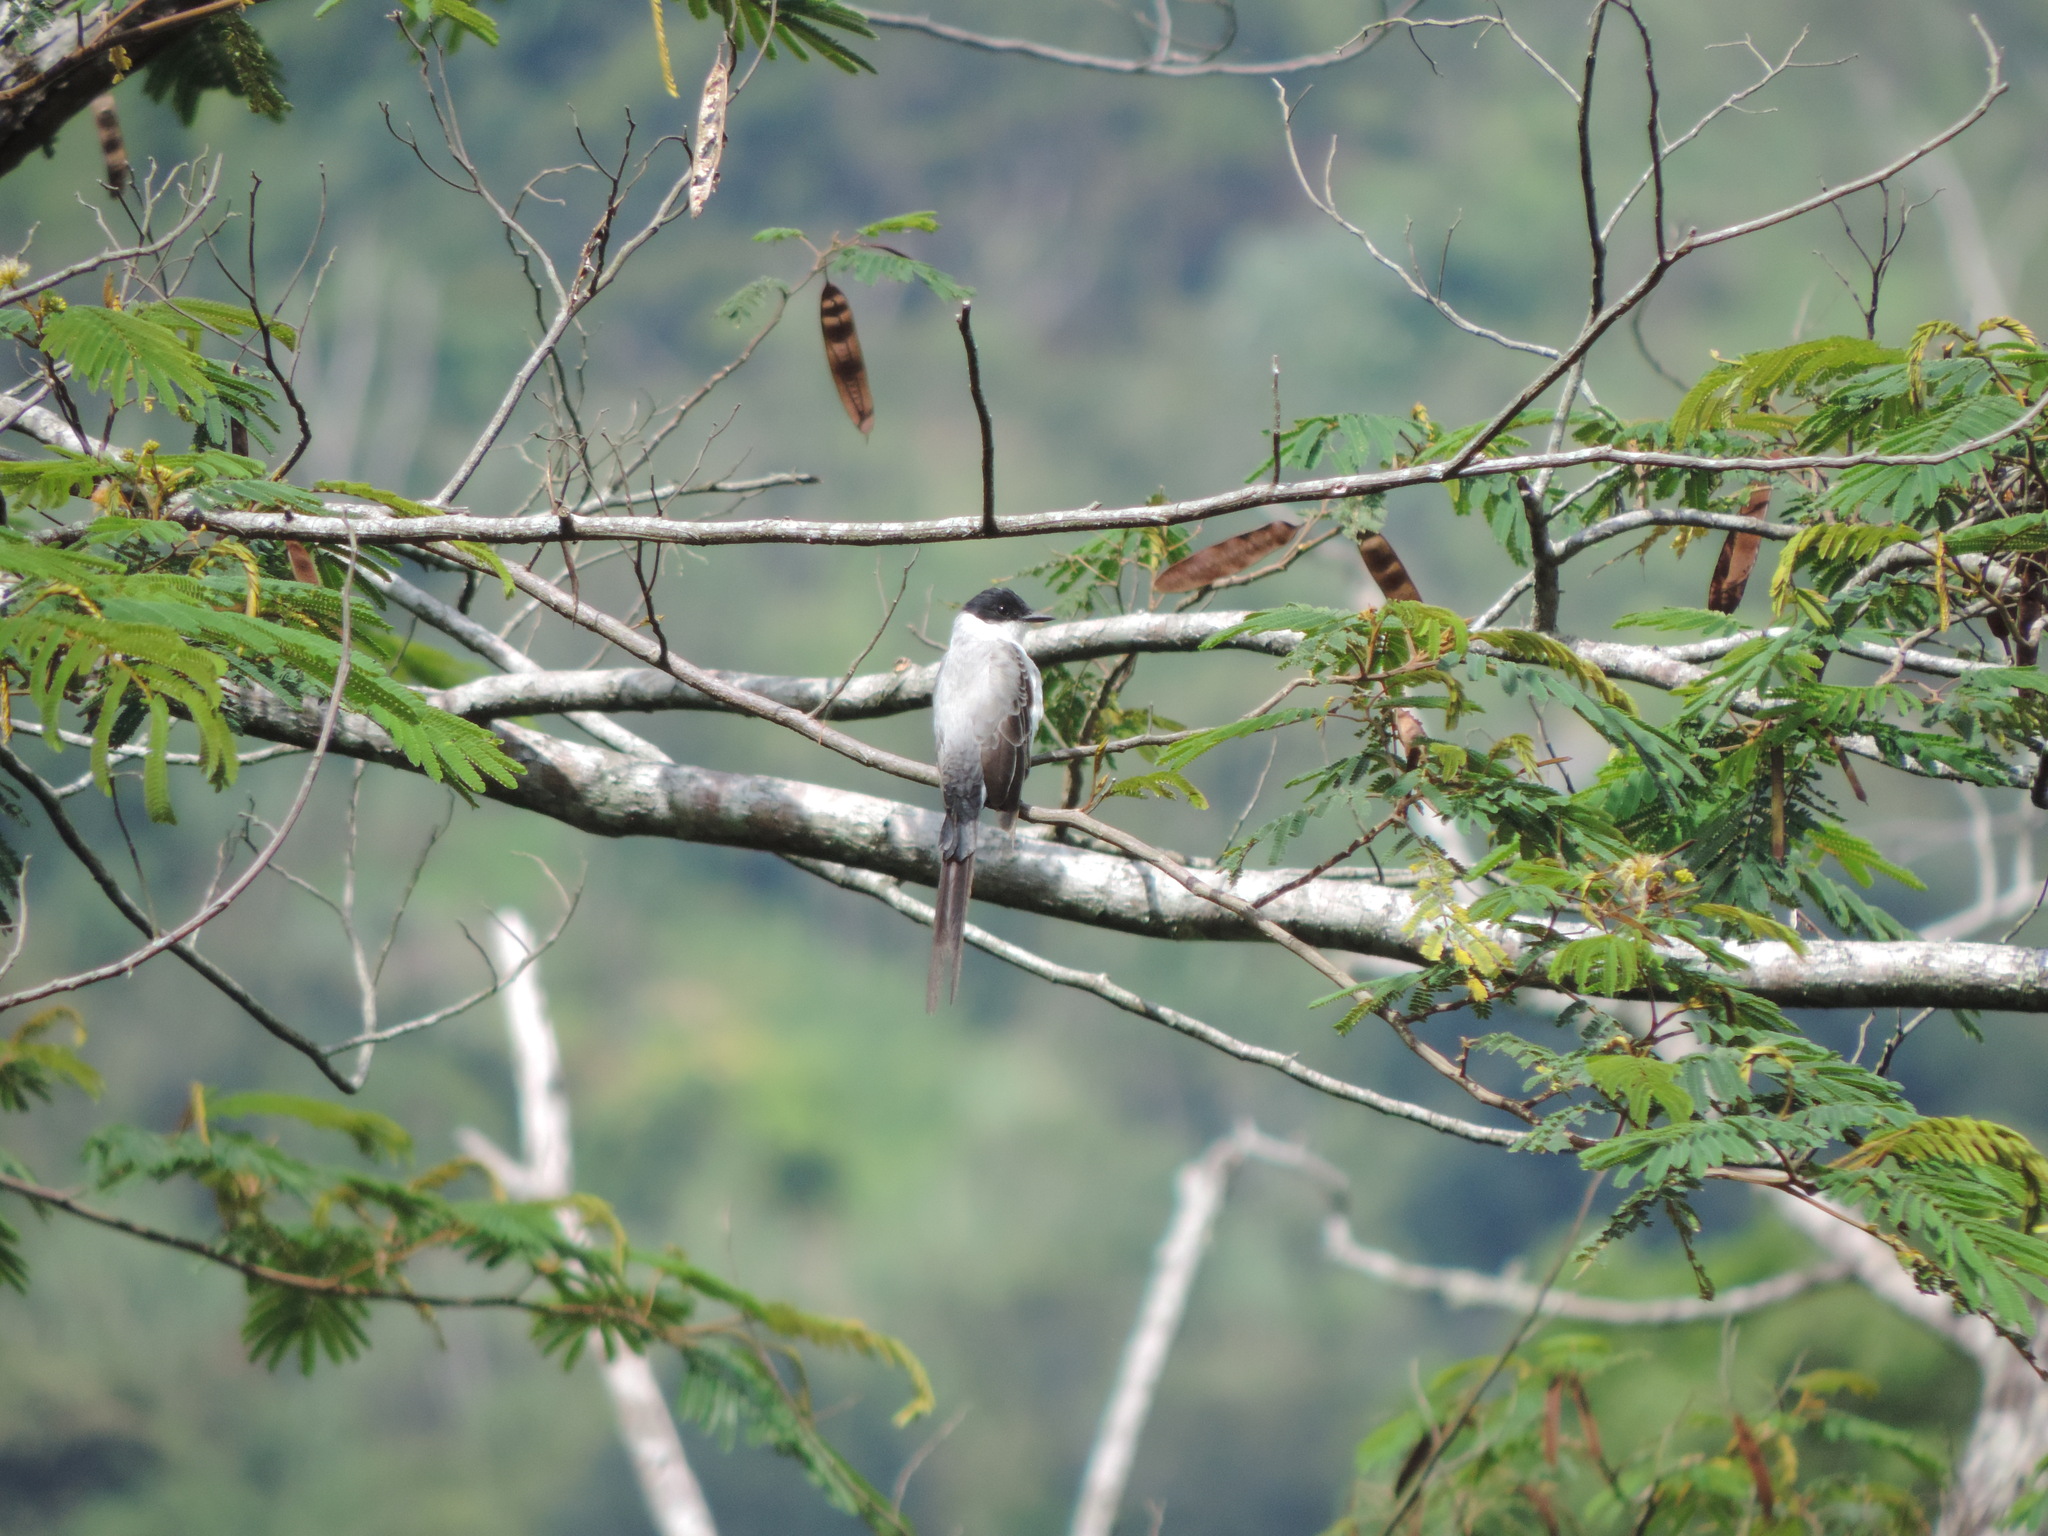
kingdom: Animalia
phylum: Chordata
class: Aves
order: Passeriformes
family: Tyrannidae
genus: Tyrannus
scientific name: Tyrannus savana
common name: Fork-tailed flycatcher
